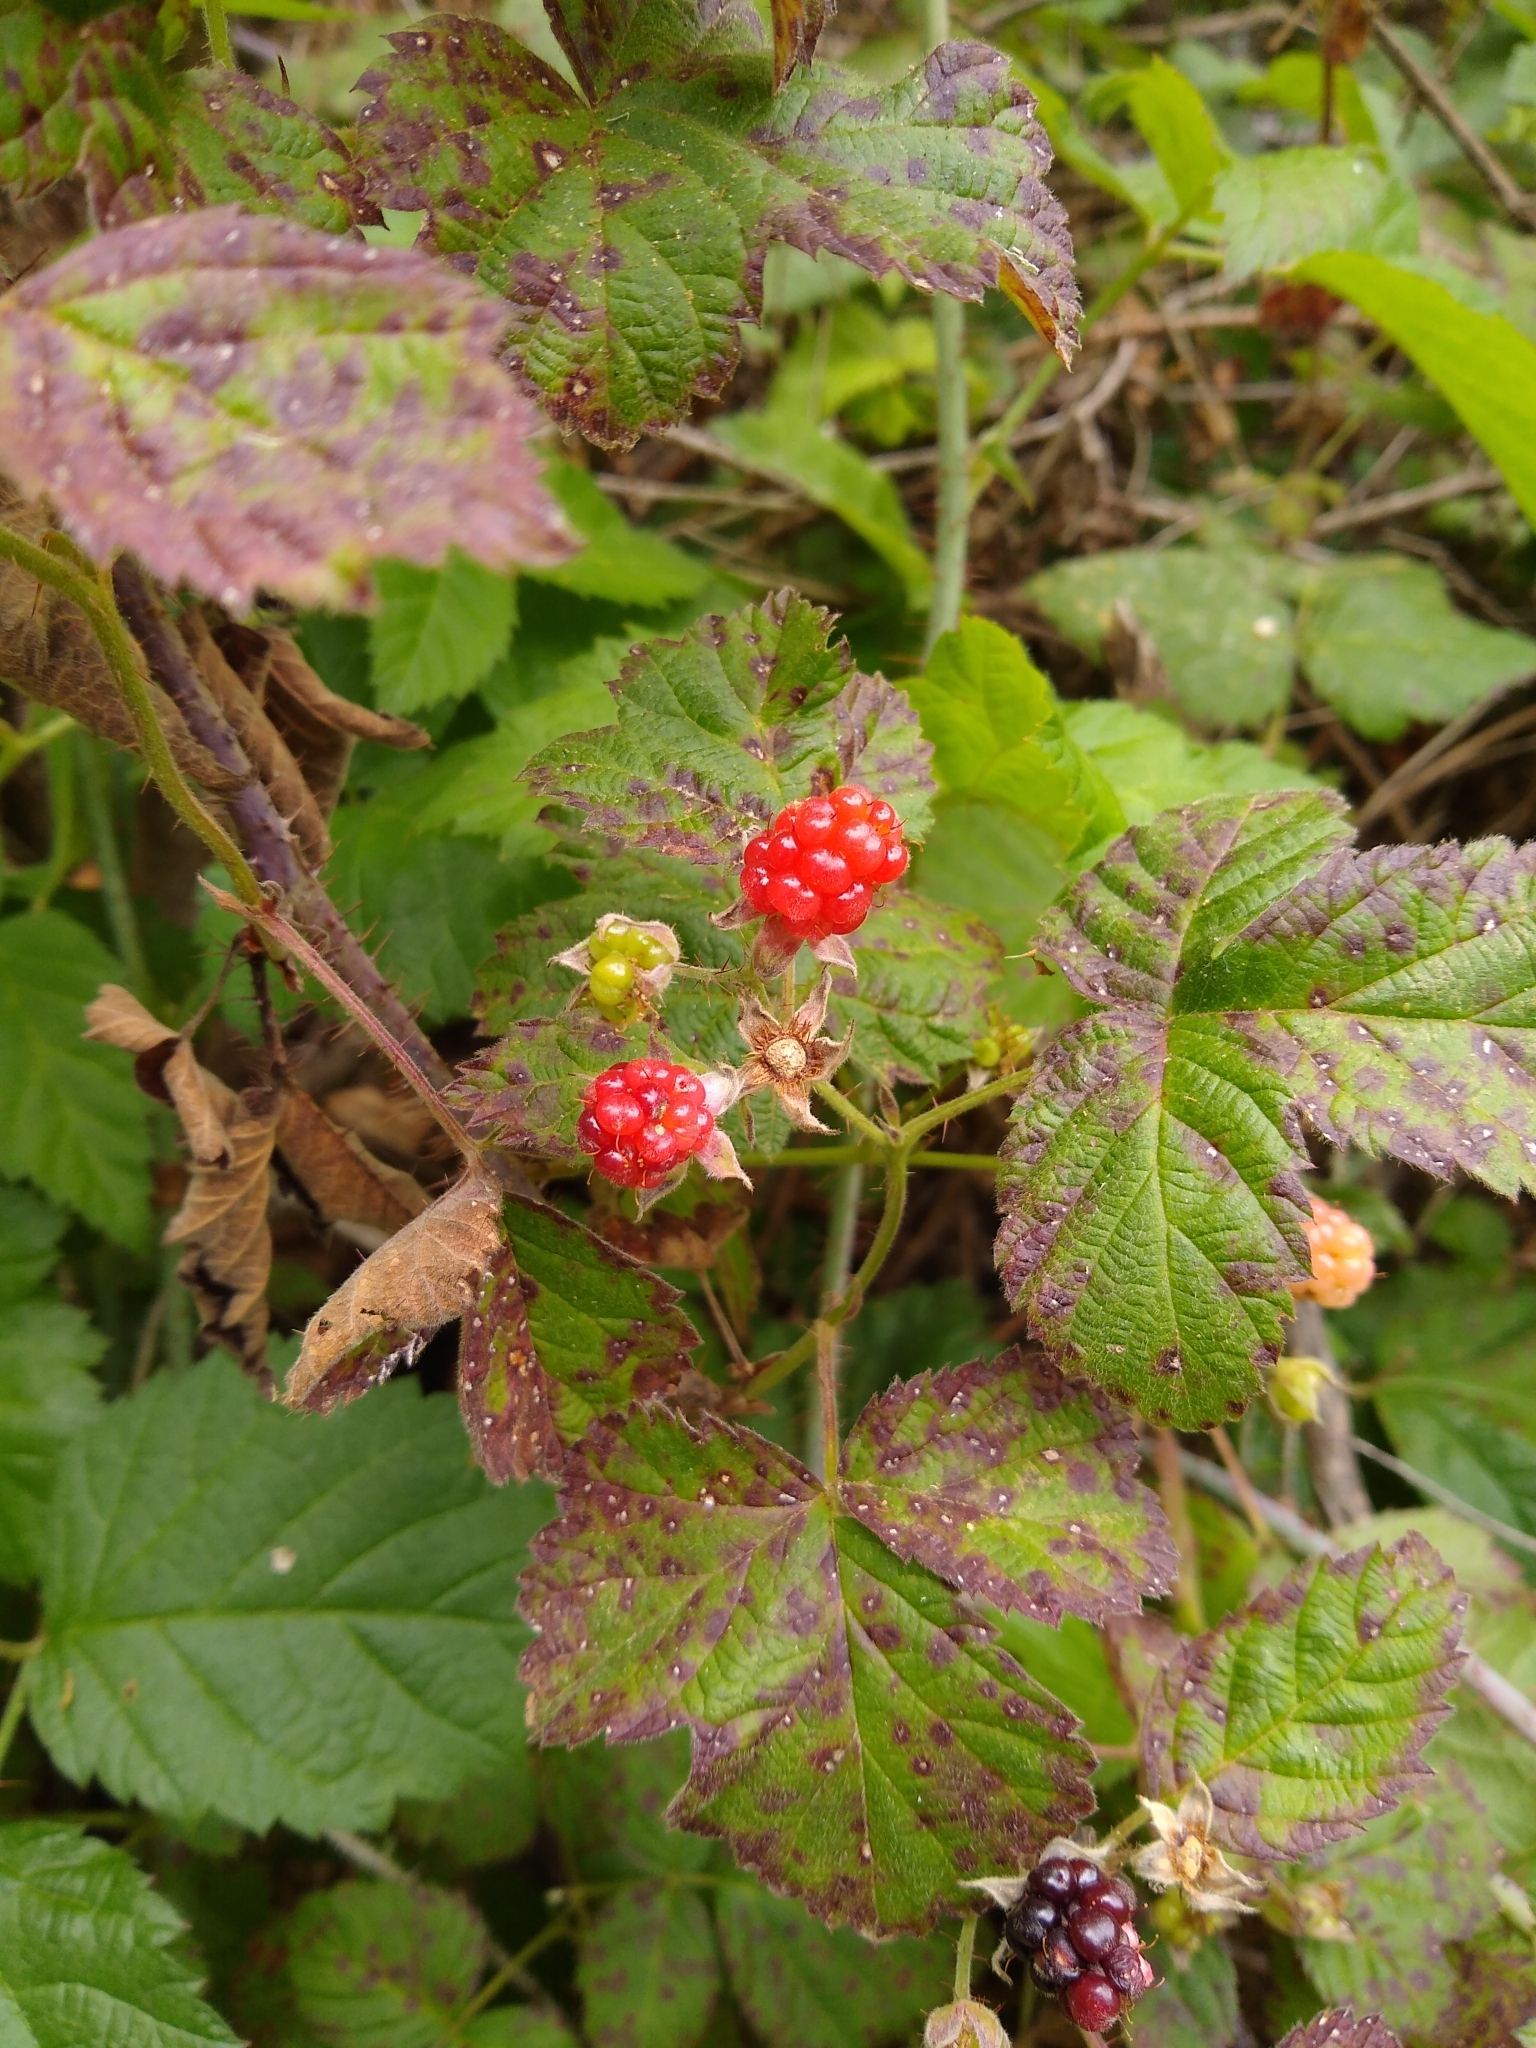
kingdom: Plantae
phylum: Tracheophyta
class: Magnoliopsida
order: Rosales
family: Rosaceae
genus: Rubus
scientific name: Rubus ursinus
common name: Pacific blackberry
